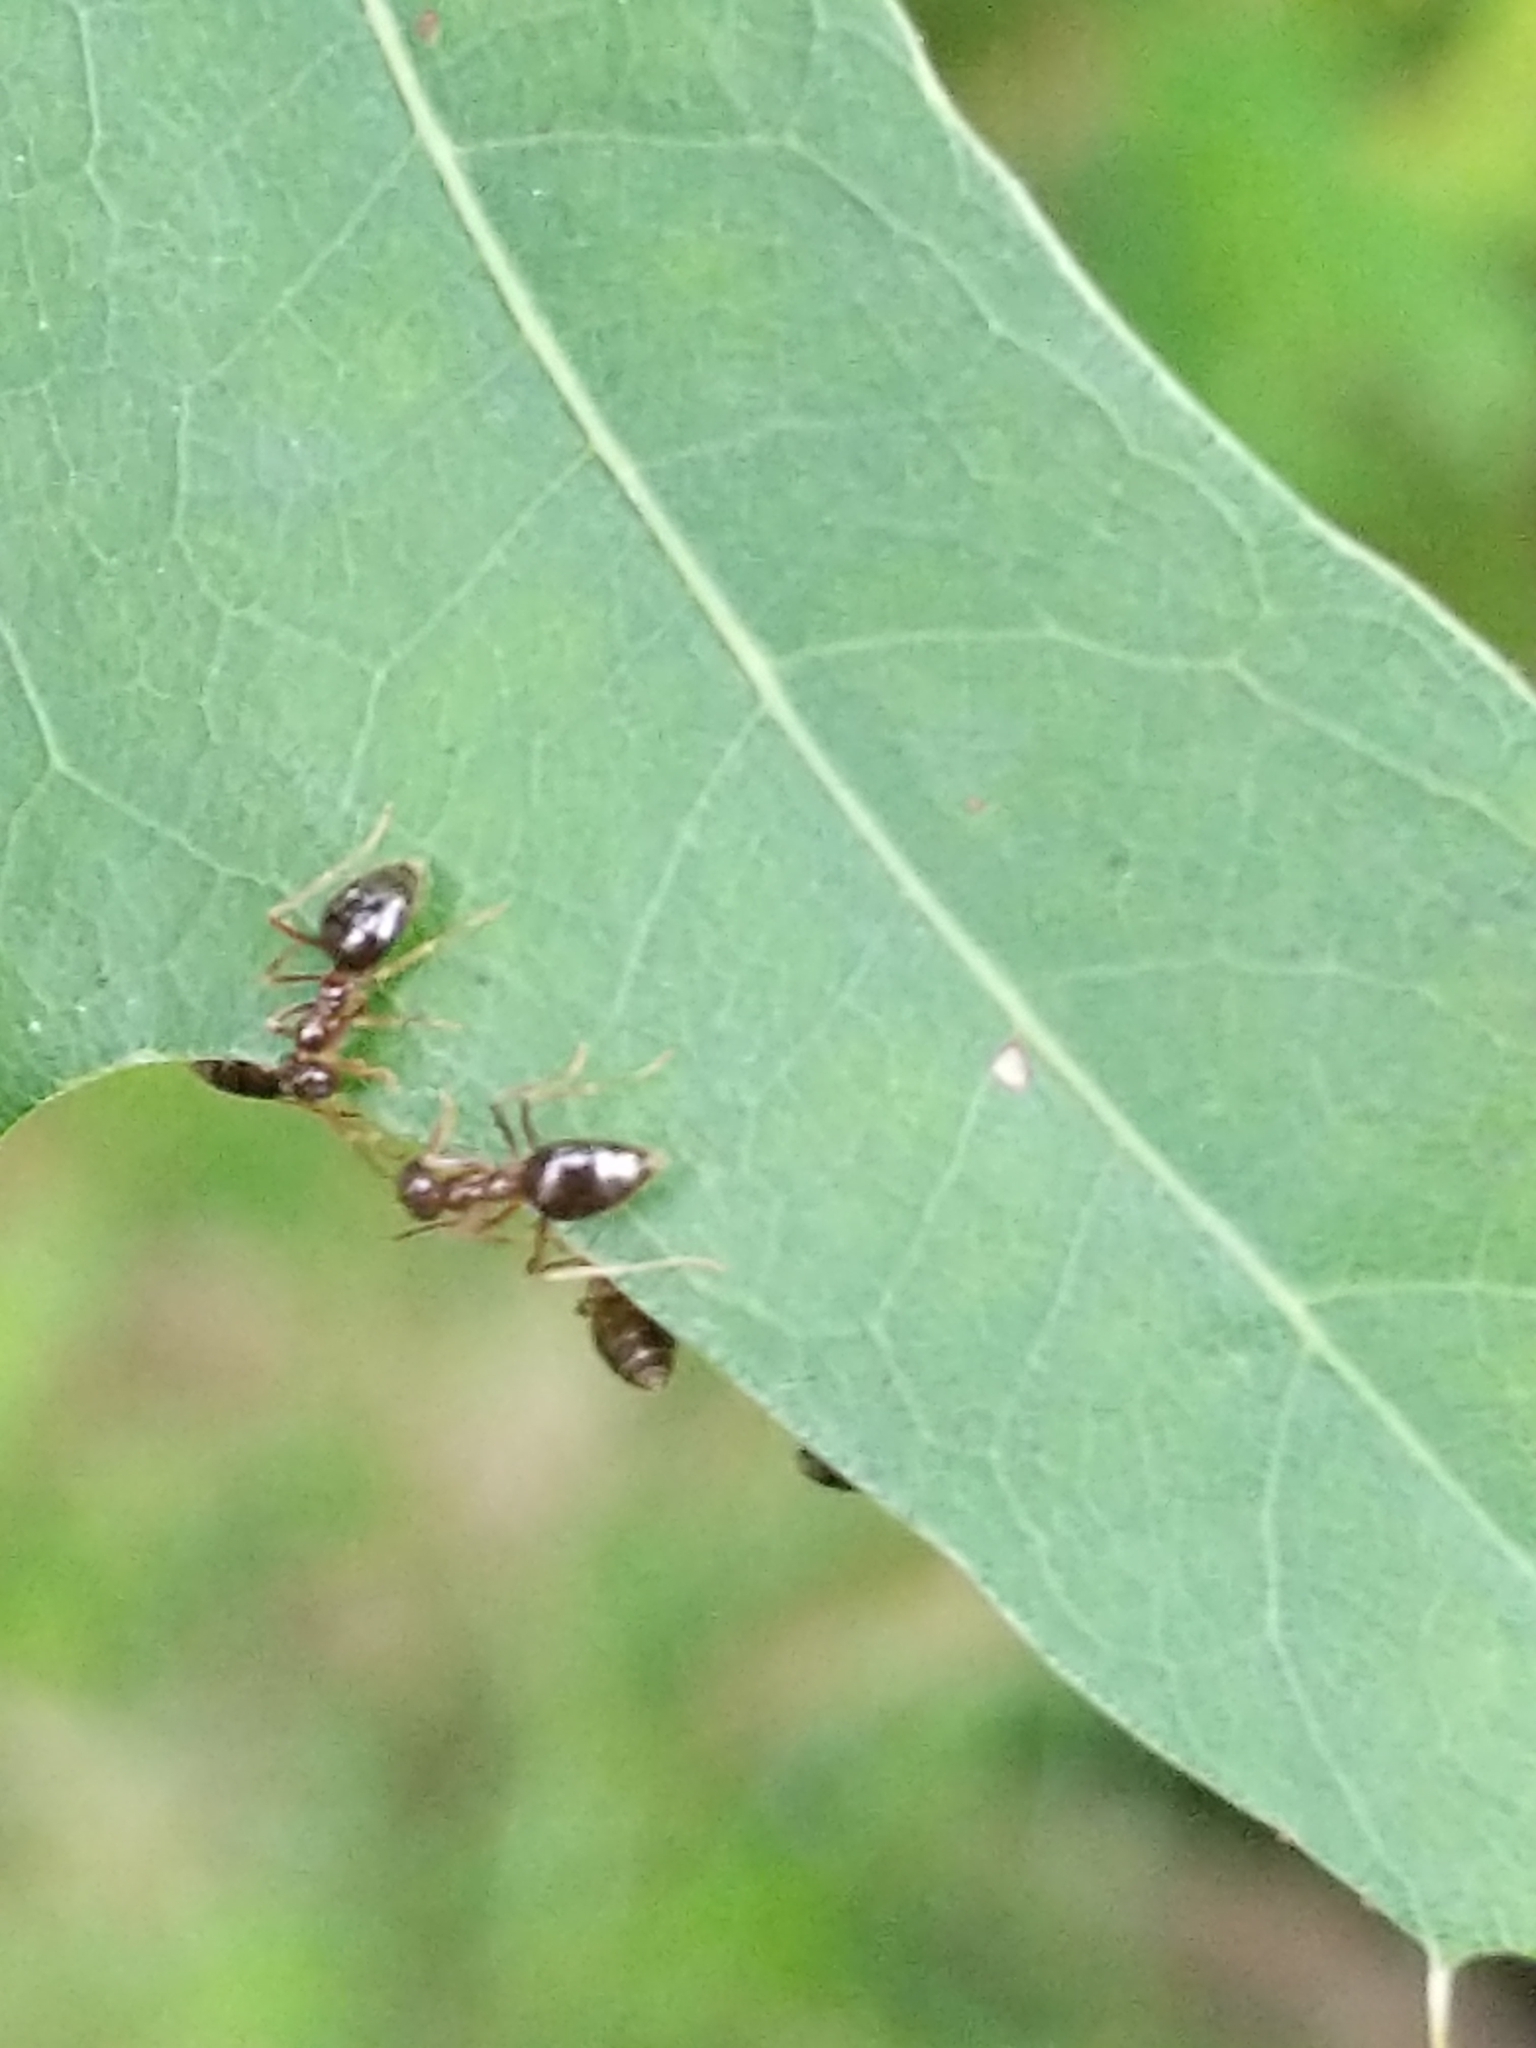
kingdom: Animalia
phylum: Arthropoda
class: Insecta
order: Hymenoptera
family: Formicidae
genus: Prenolepis
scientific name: Prenolepis imparis
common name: Small honey ant
